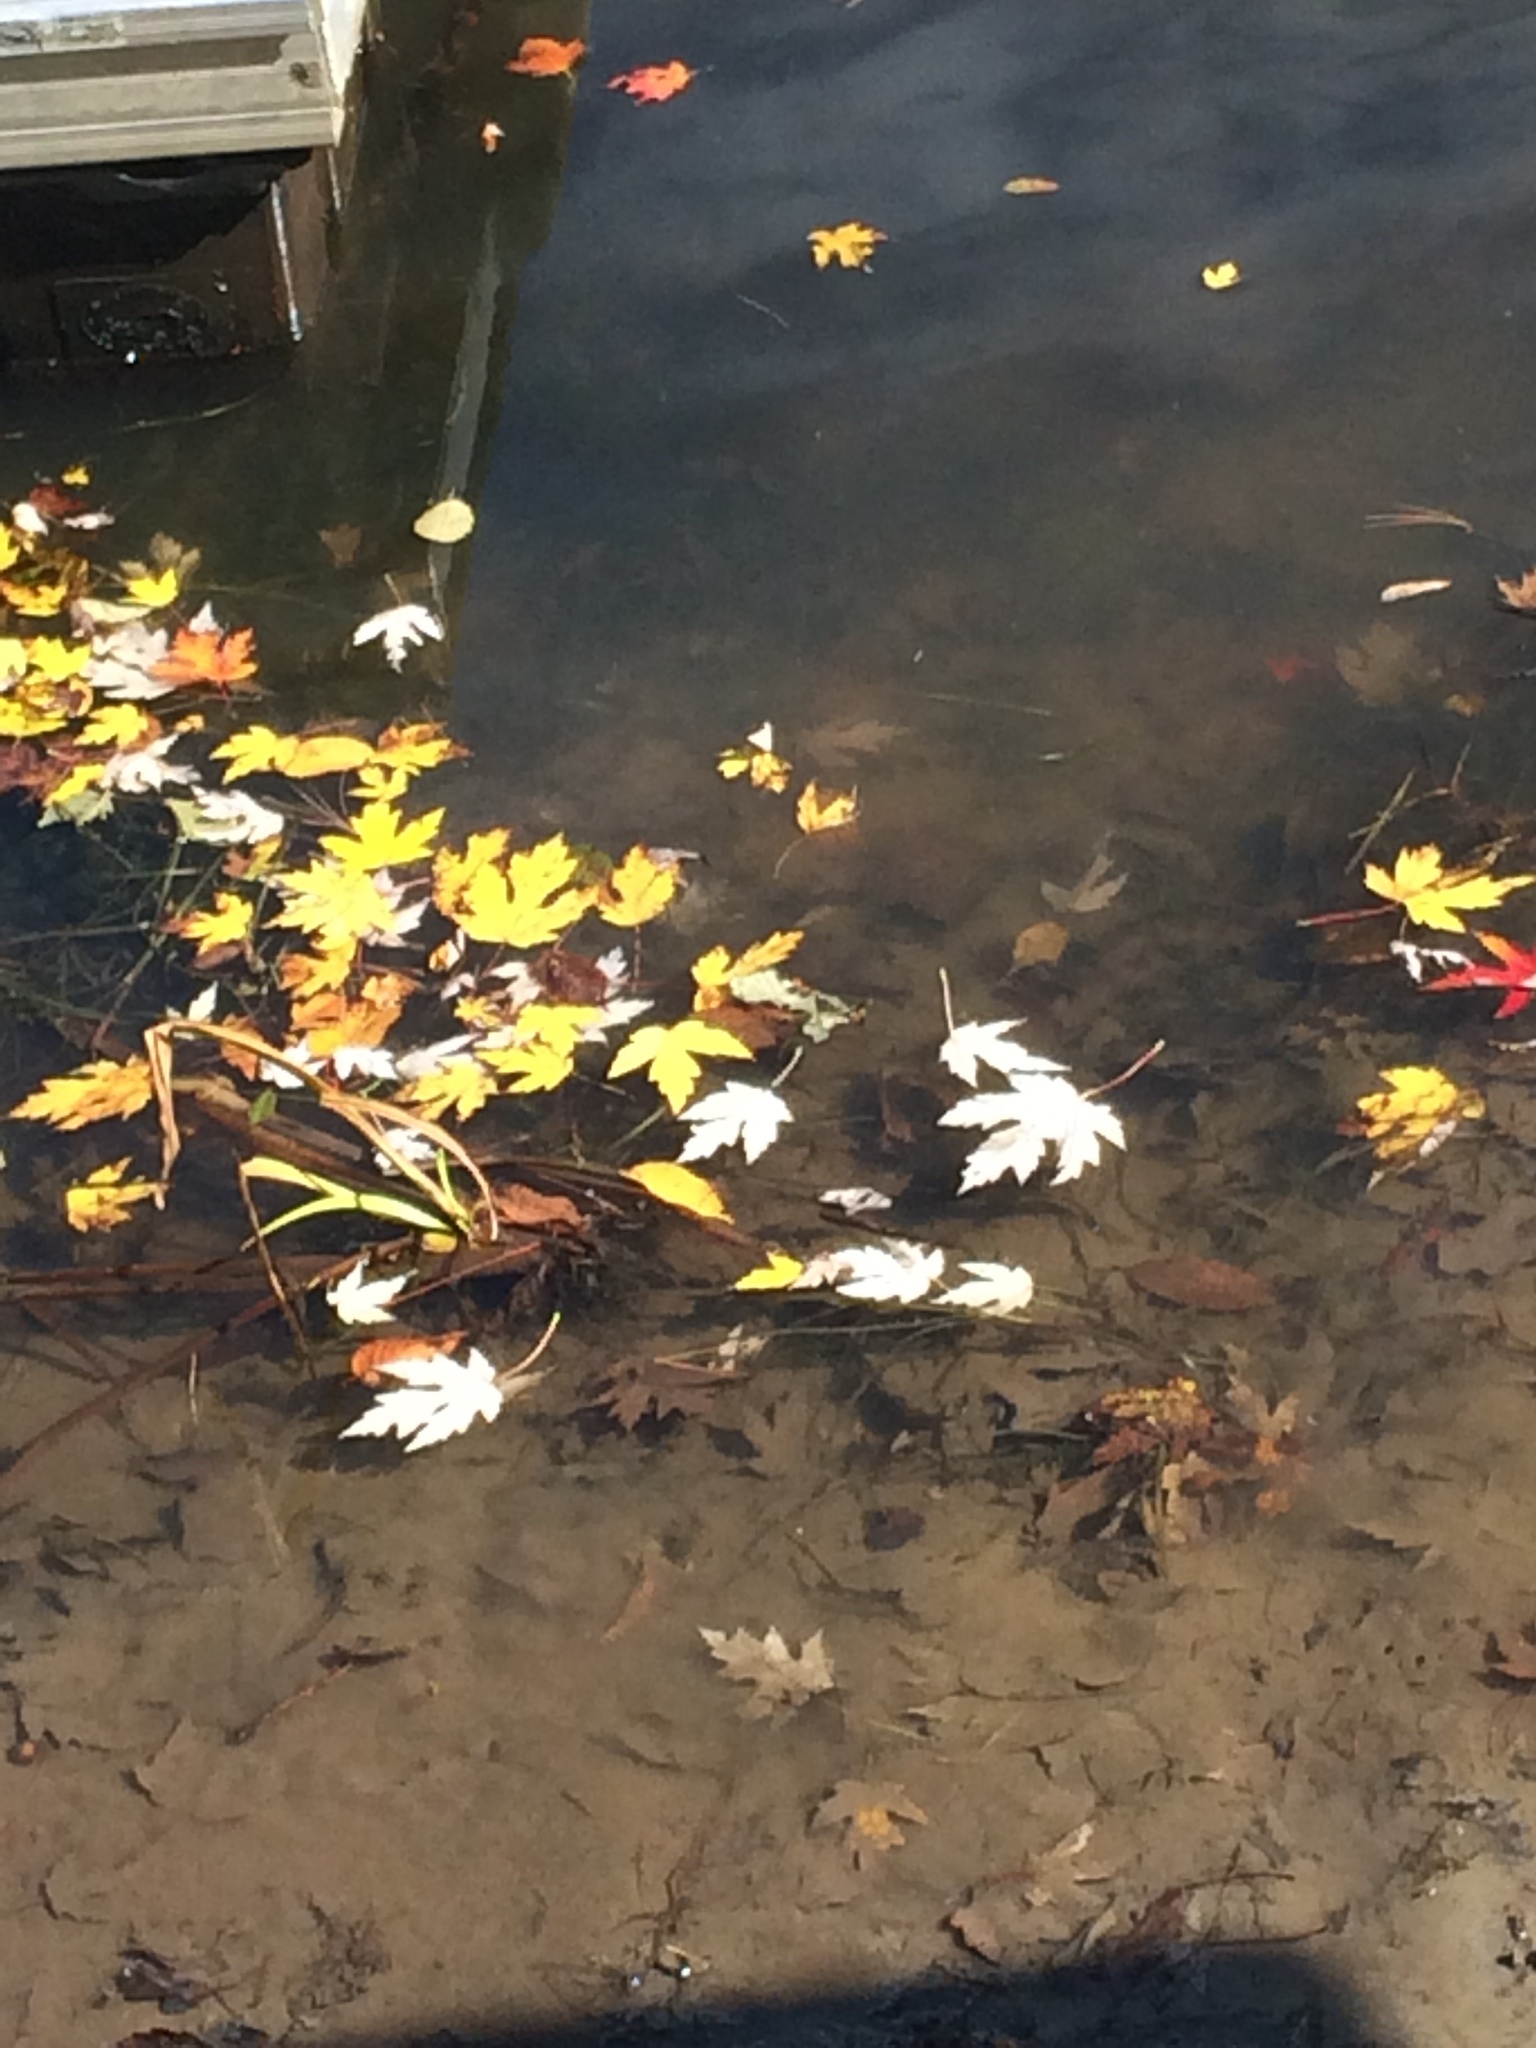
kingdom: Plantae
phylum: Tracheophyta
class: Magnoliopsida
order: Sapindales
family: Sapindaceae
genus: Acer
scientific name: Acer saccharinum
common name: Silver maple
